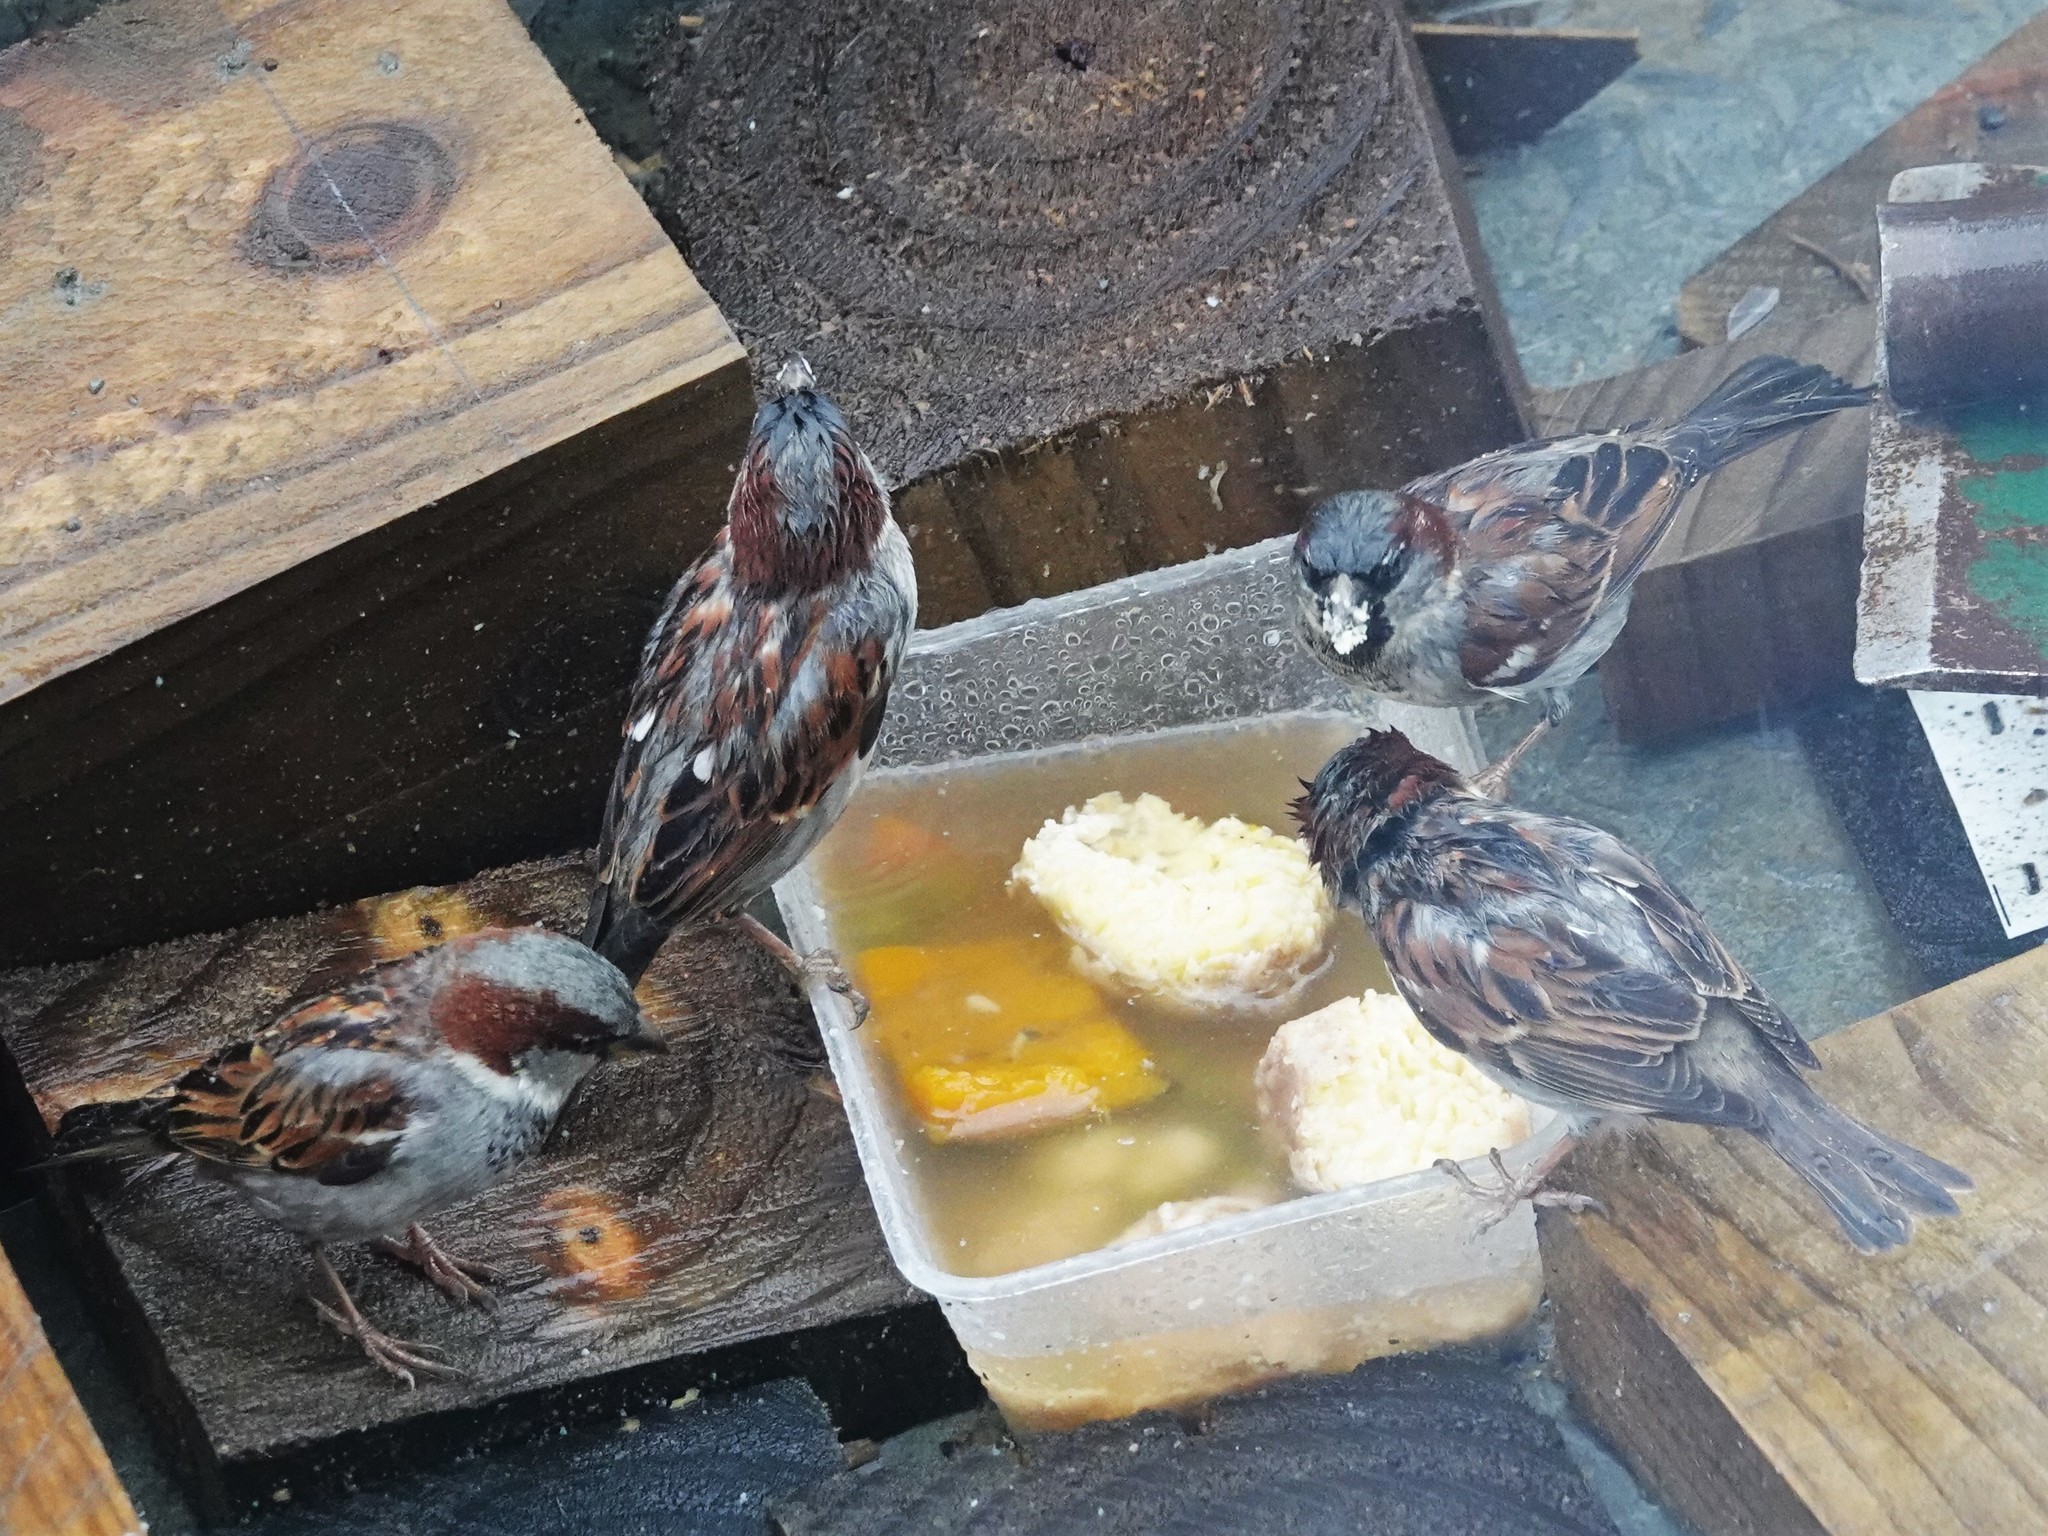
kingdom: Animalia
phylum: Chordata
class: Aves
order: Passeriformes
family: Passeridae
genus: Passer
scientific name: Passer domesticus
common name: House sparrow
